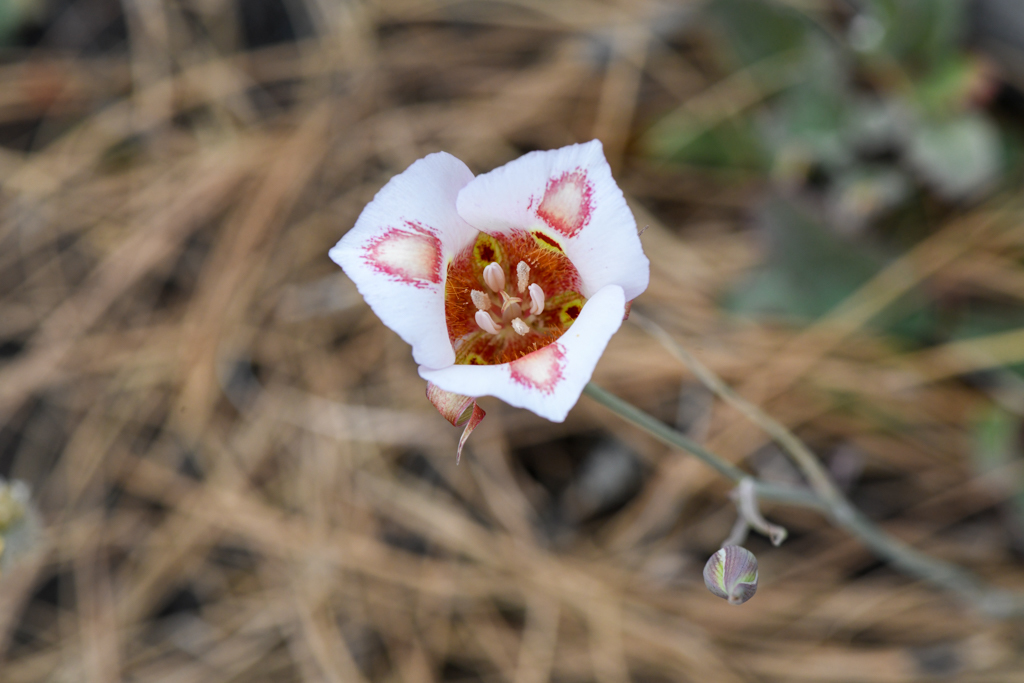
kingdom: Plantae
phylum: Tracheophyta
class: Liliopsida
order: Liliales
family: Liliaceae
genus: Calochortus
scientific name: Calochortus venustus
